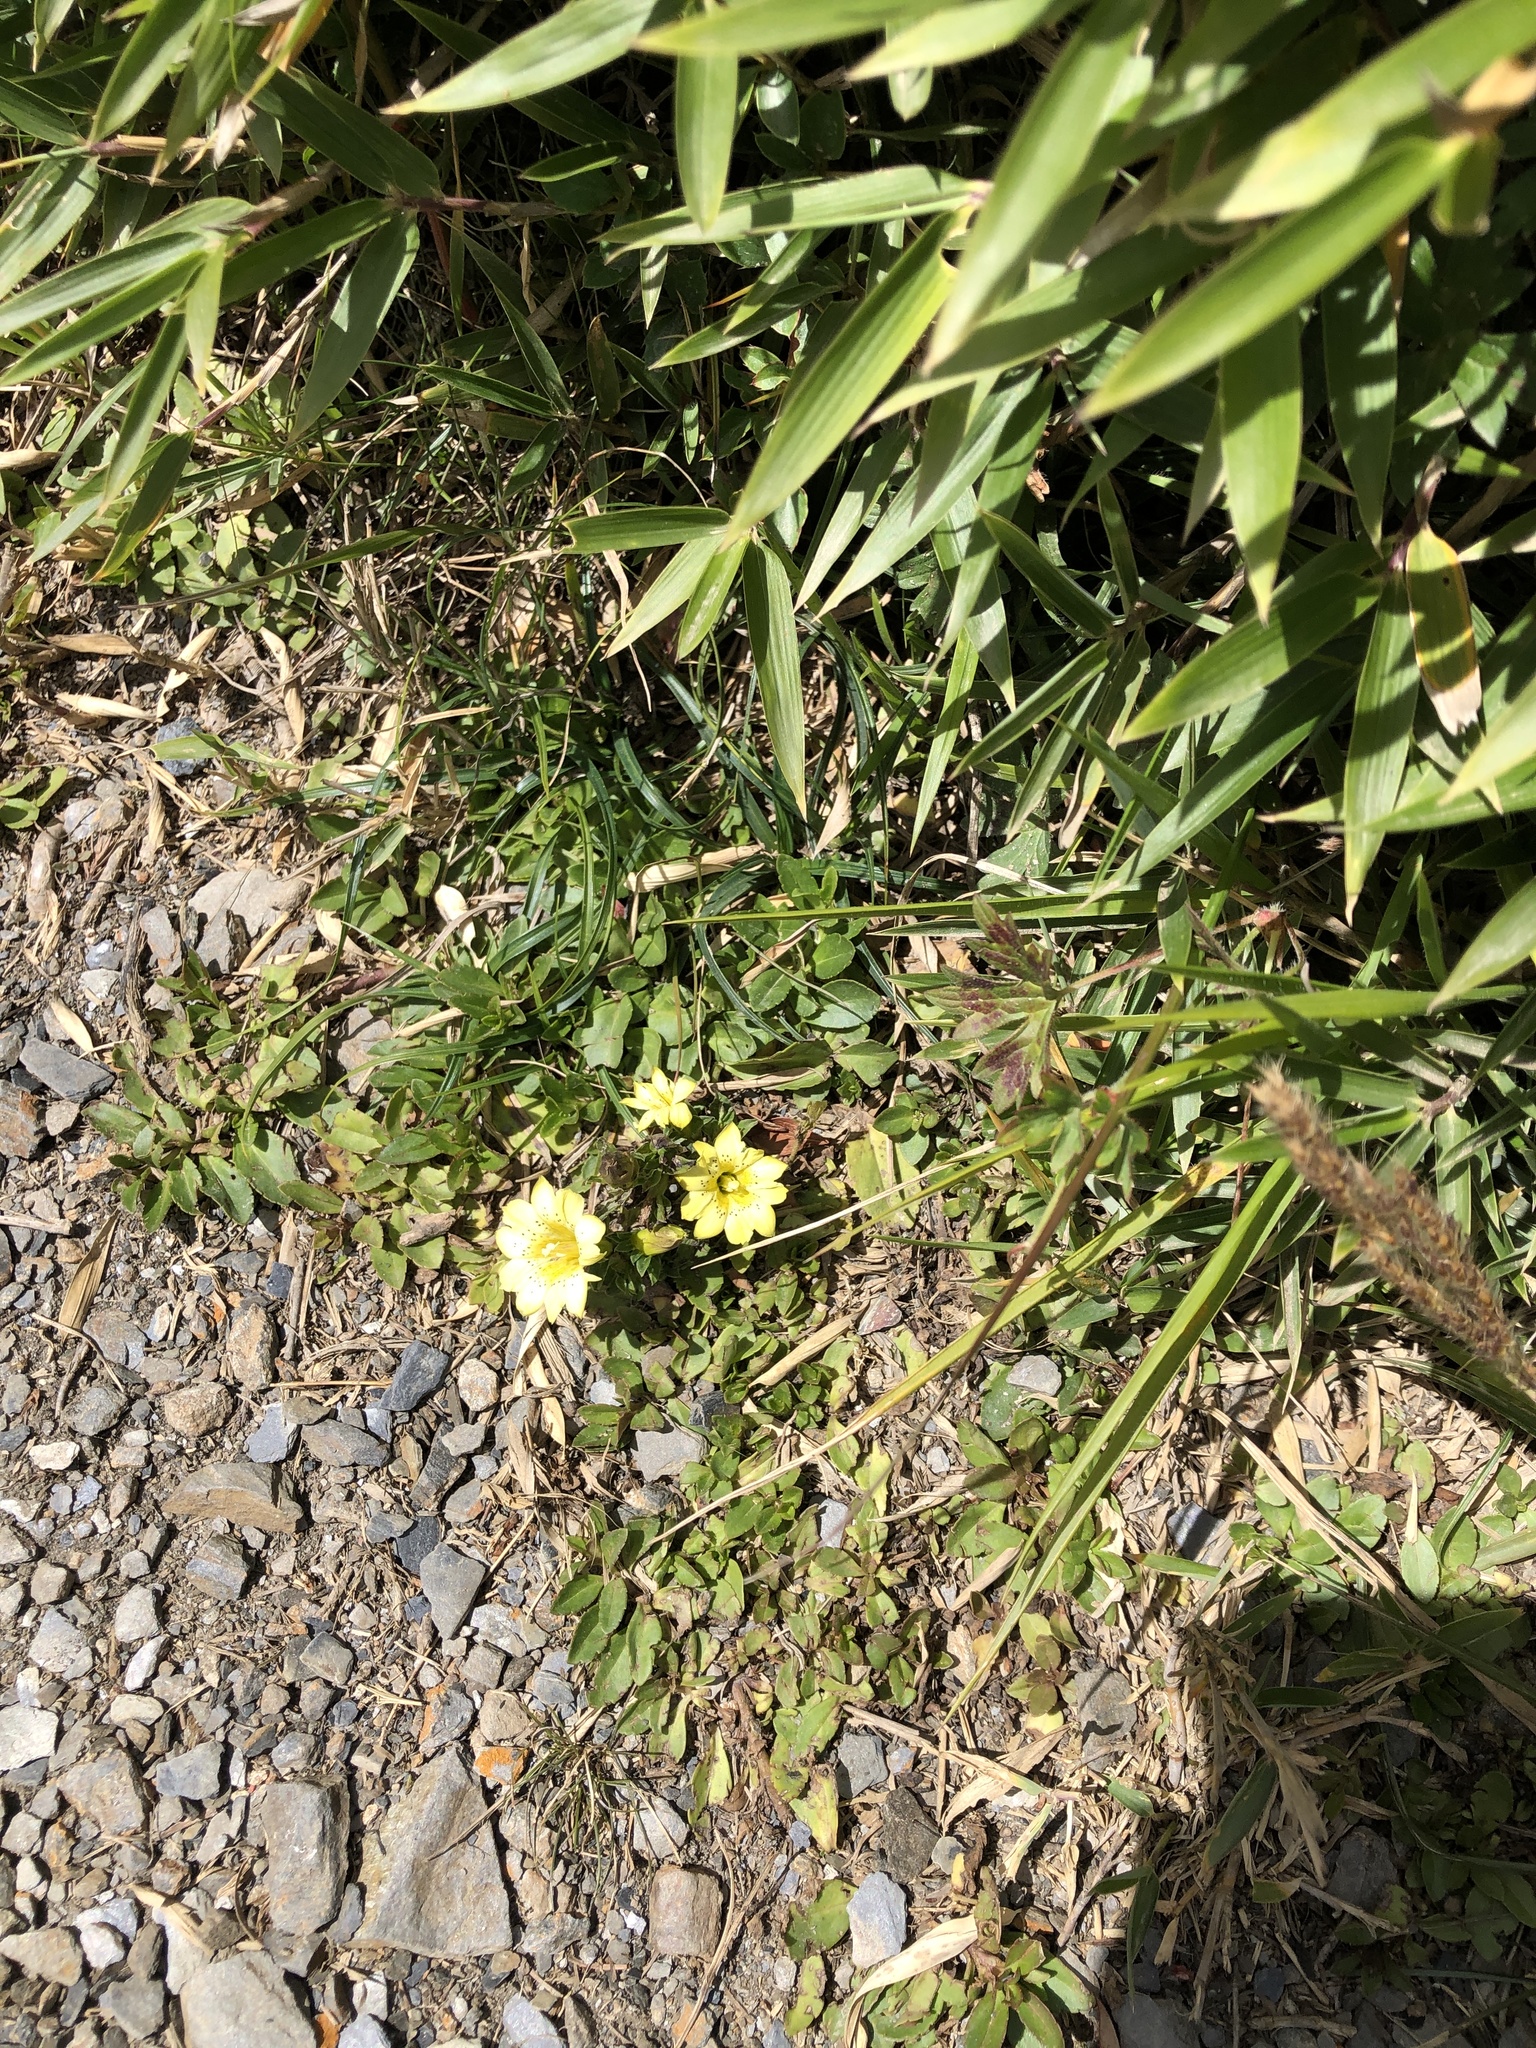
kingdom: Plantae
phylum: Tracheophyta
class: Magnoliopsida
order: Gentianales
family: Gentianaceae
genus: Gentiana
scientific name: Gentiana scabrida
